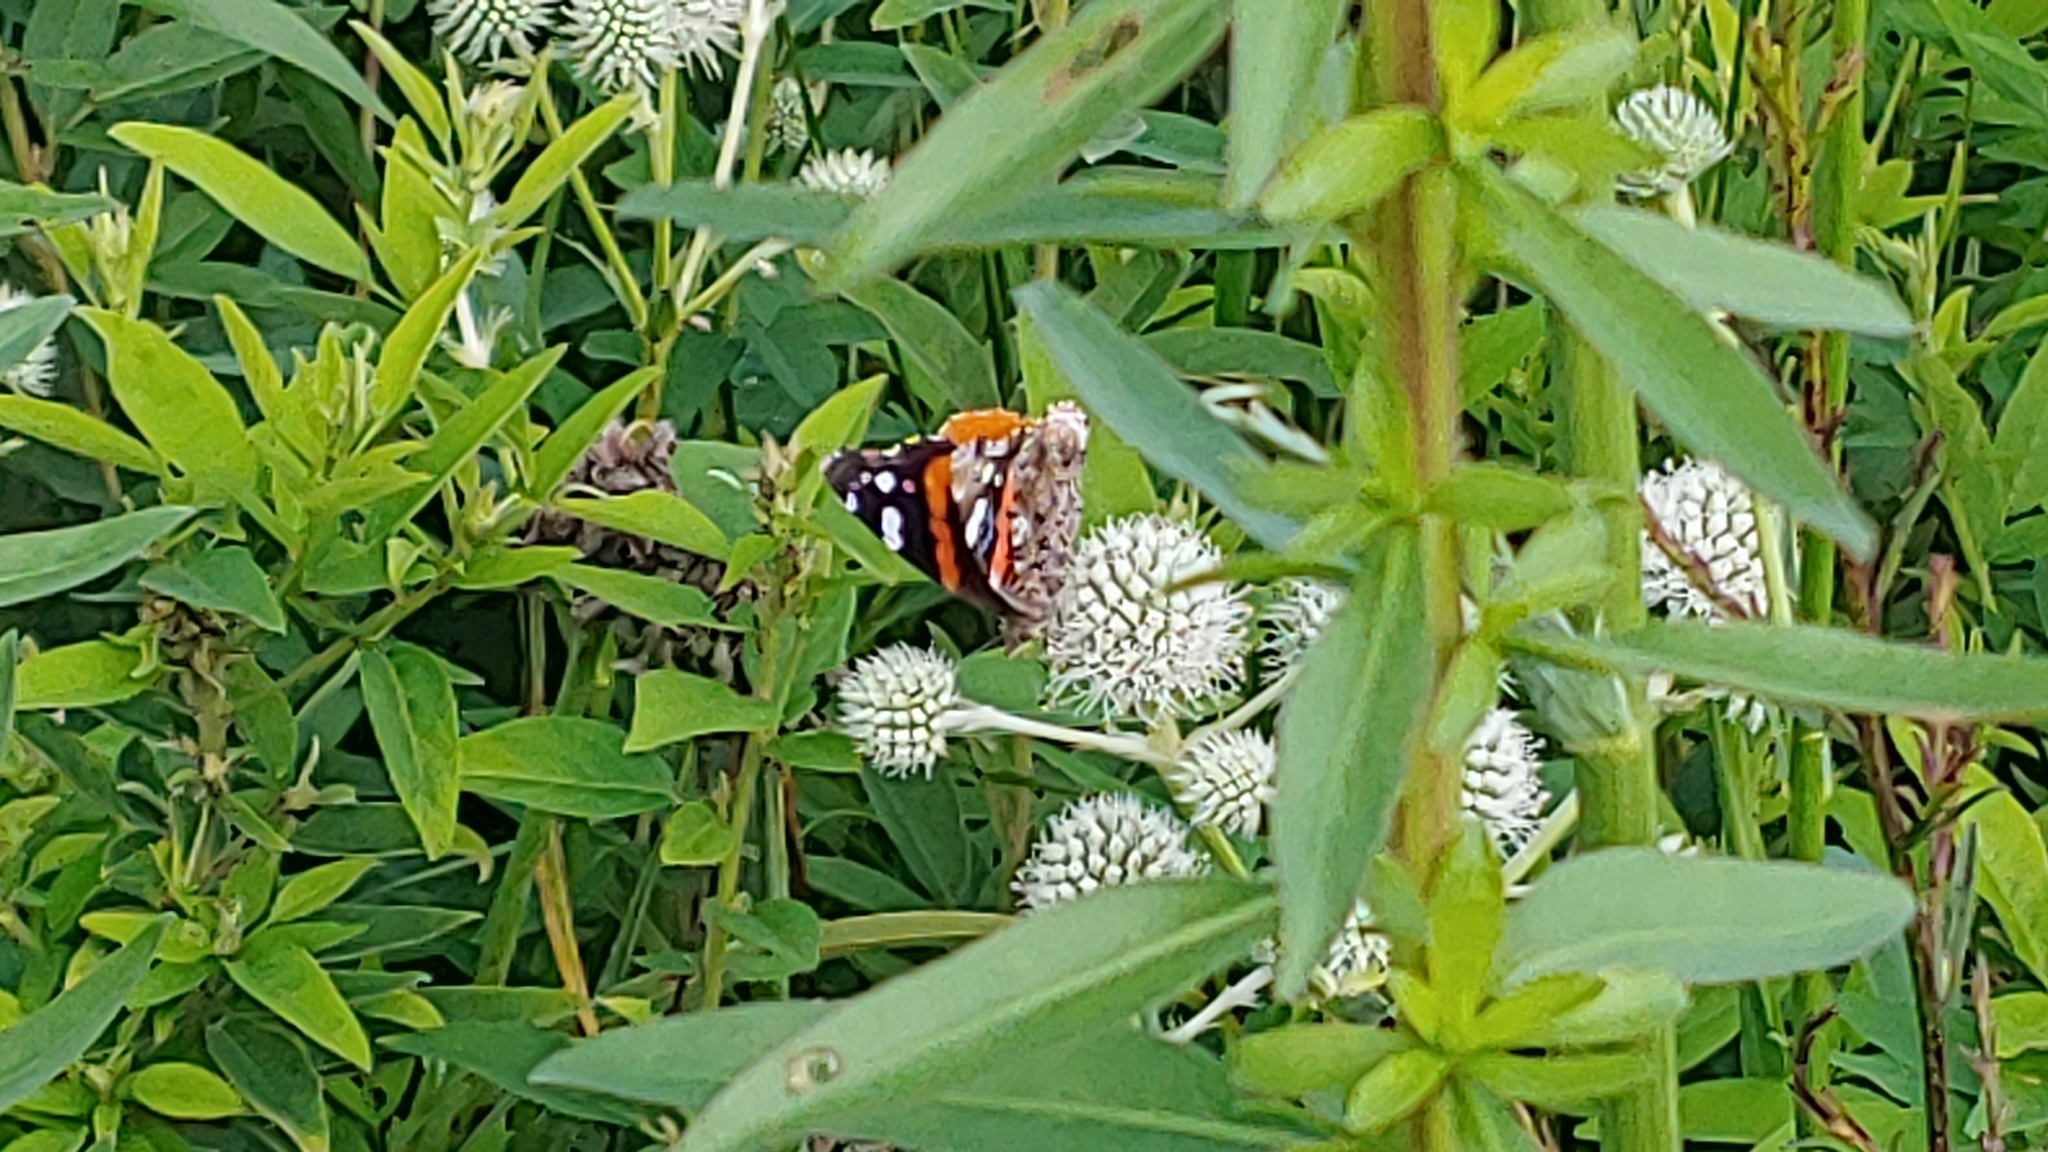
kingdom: Animalia
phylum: Arthropoda
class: Insecta
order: Lepidoptera
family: Nymphalidae
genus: Vanessa
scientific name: Vanessa atalanta
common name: Red admiral
